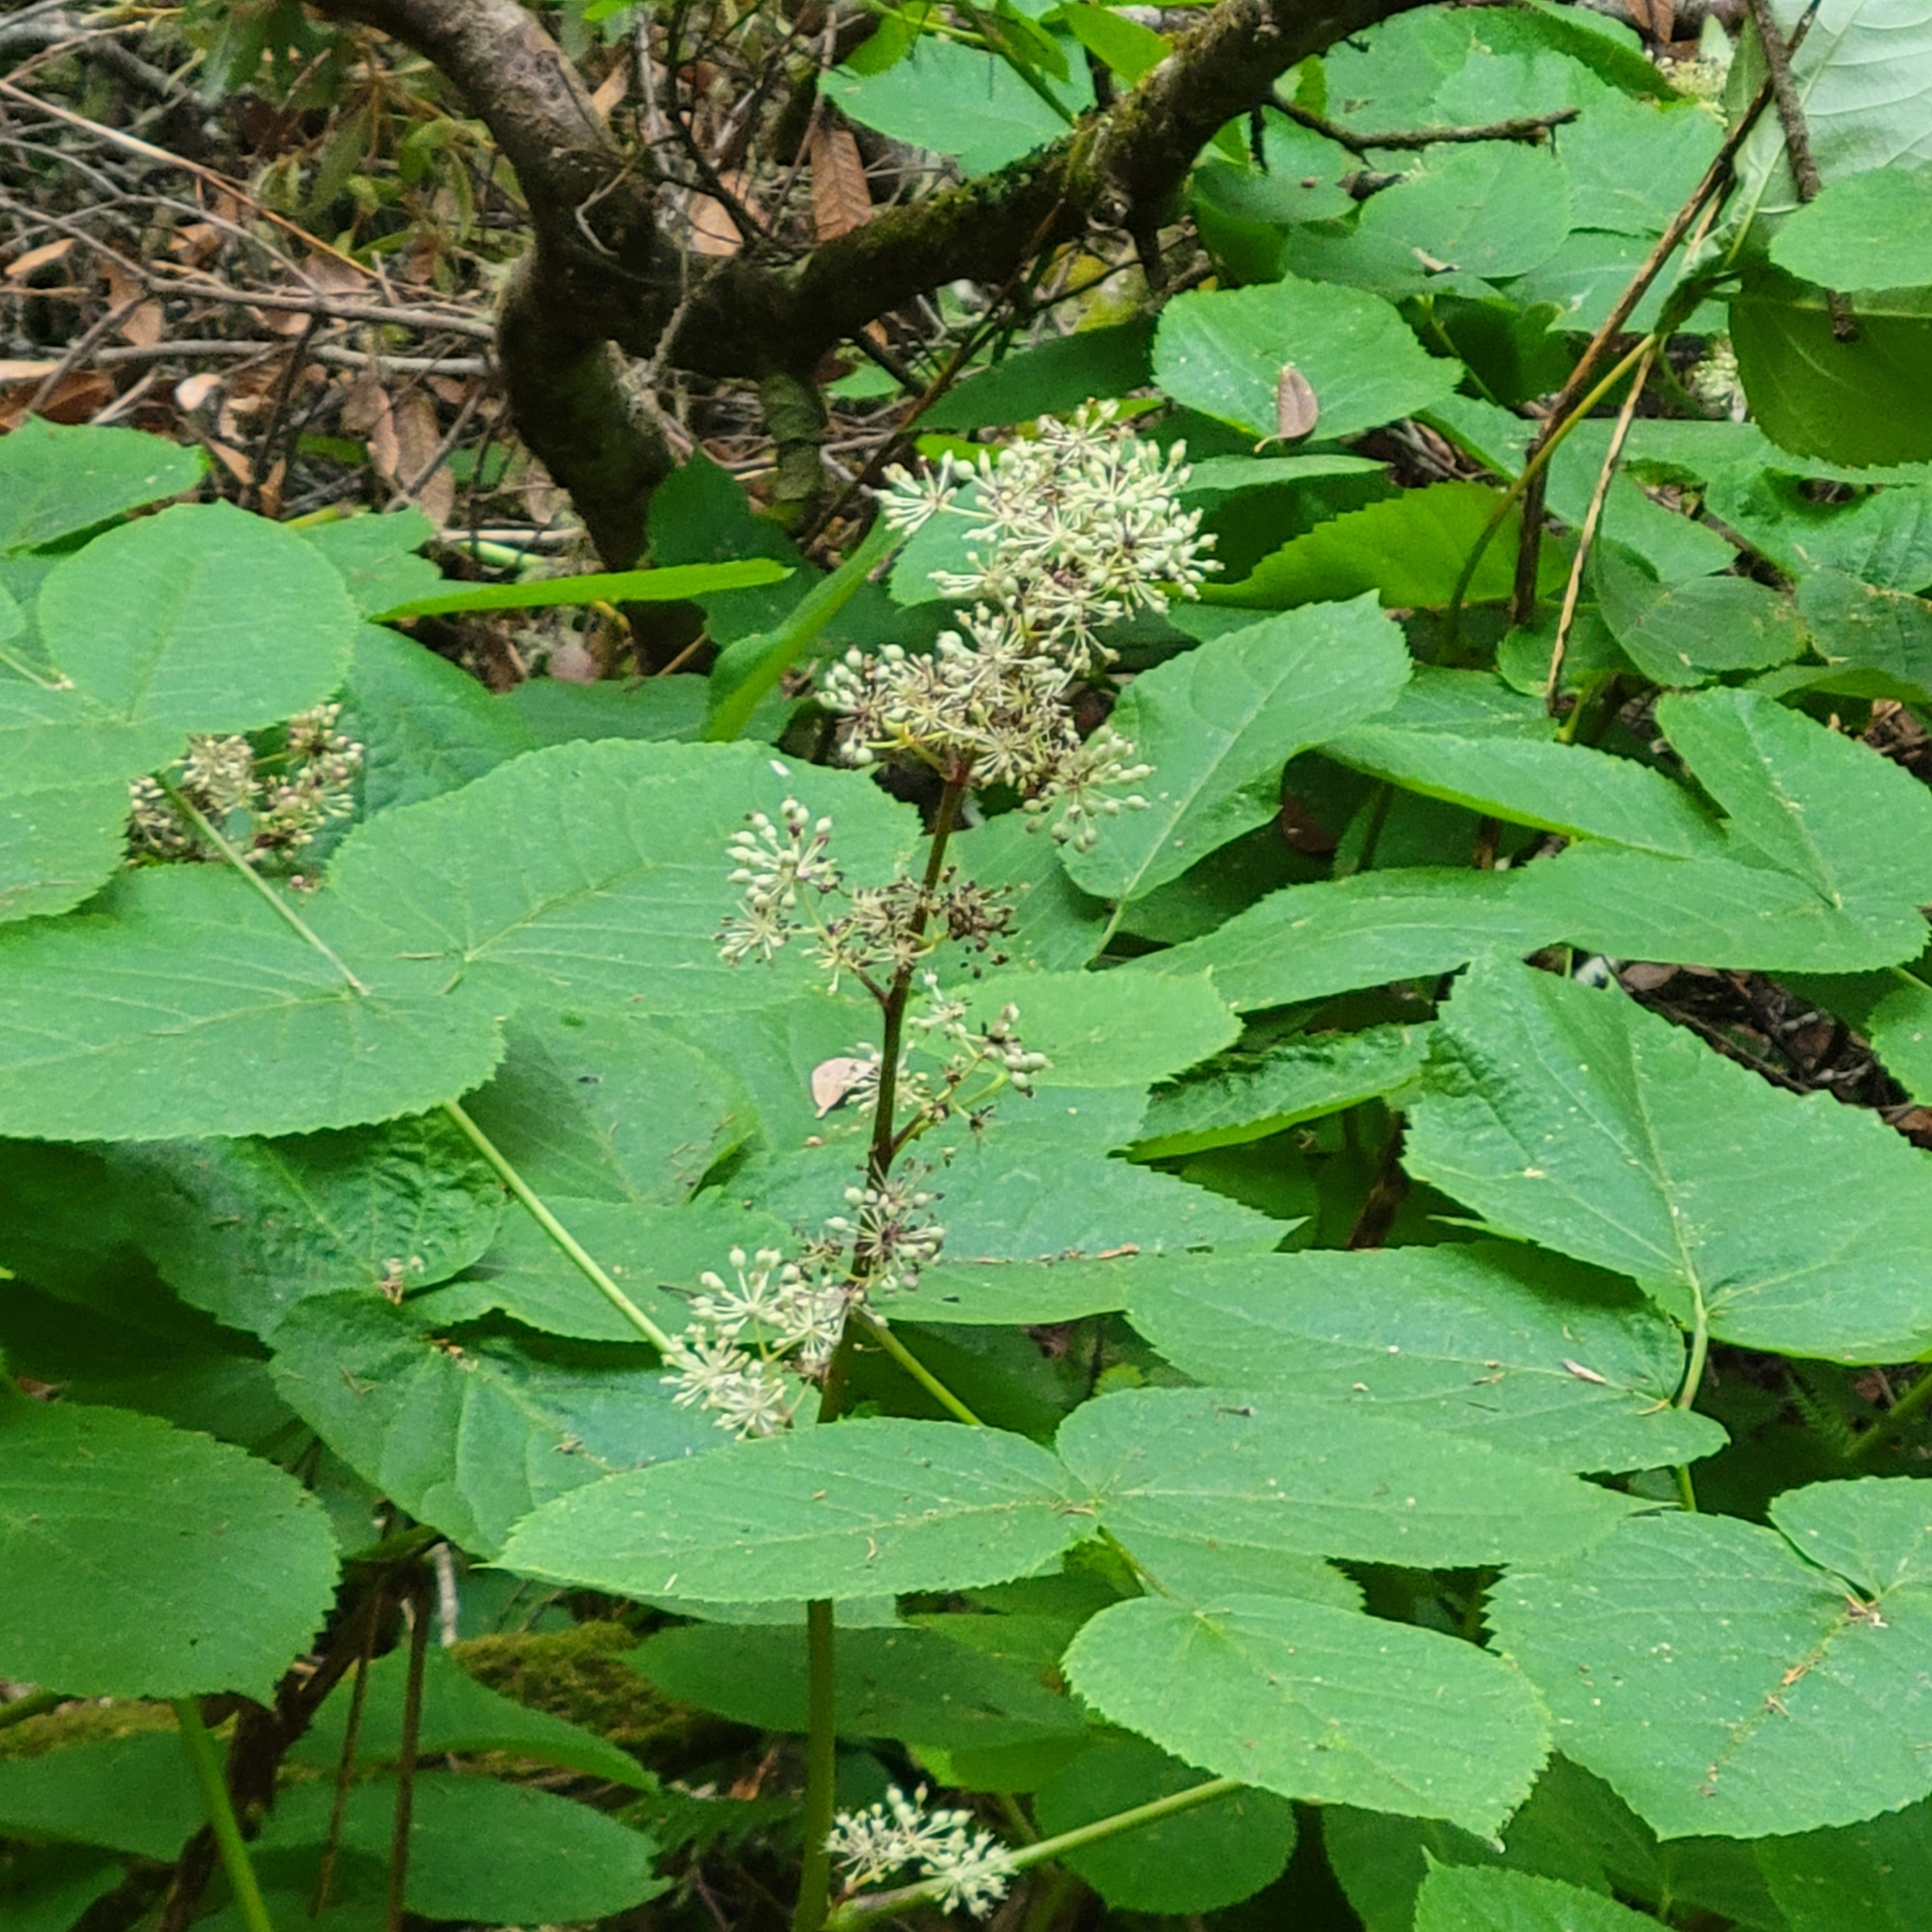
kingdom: Plantae
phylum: Tracheophyta
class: Magnoliopsida
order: Apiales
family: Araliaceae
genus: Aralia
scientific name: Aralia californica
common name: California-ginseng
